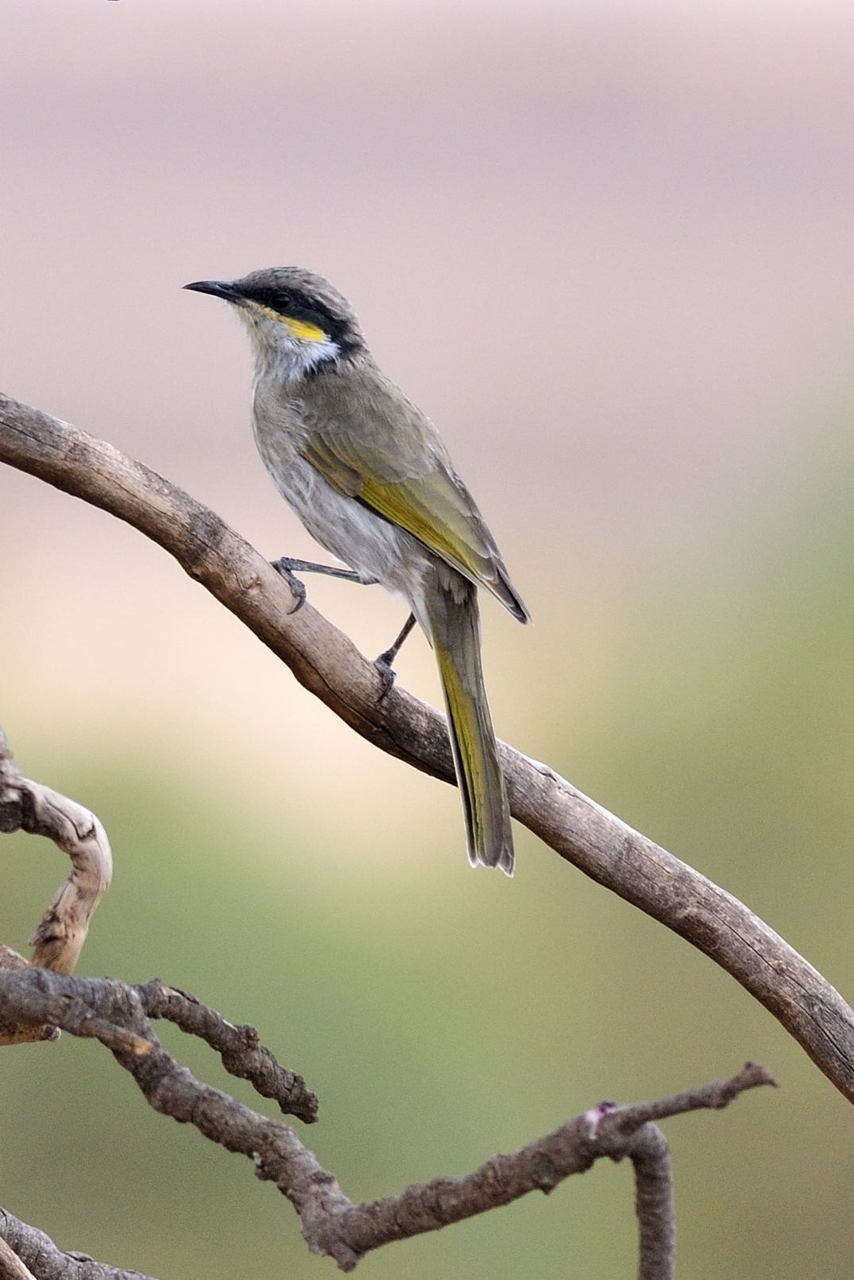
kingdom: Animalia
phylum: Chordata
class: Aves
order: Passeriformes
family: Meliphagidae
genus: Gavicalis
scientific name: Gavicalis virescens
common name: Singing honeyeater
